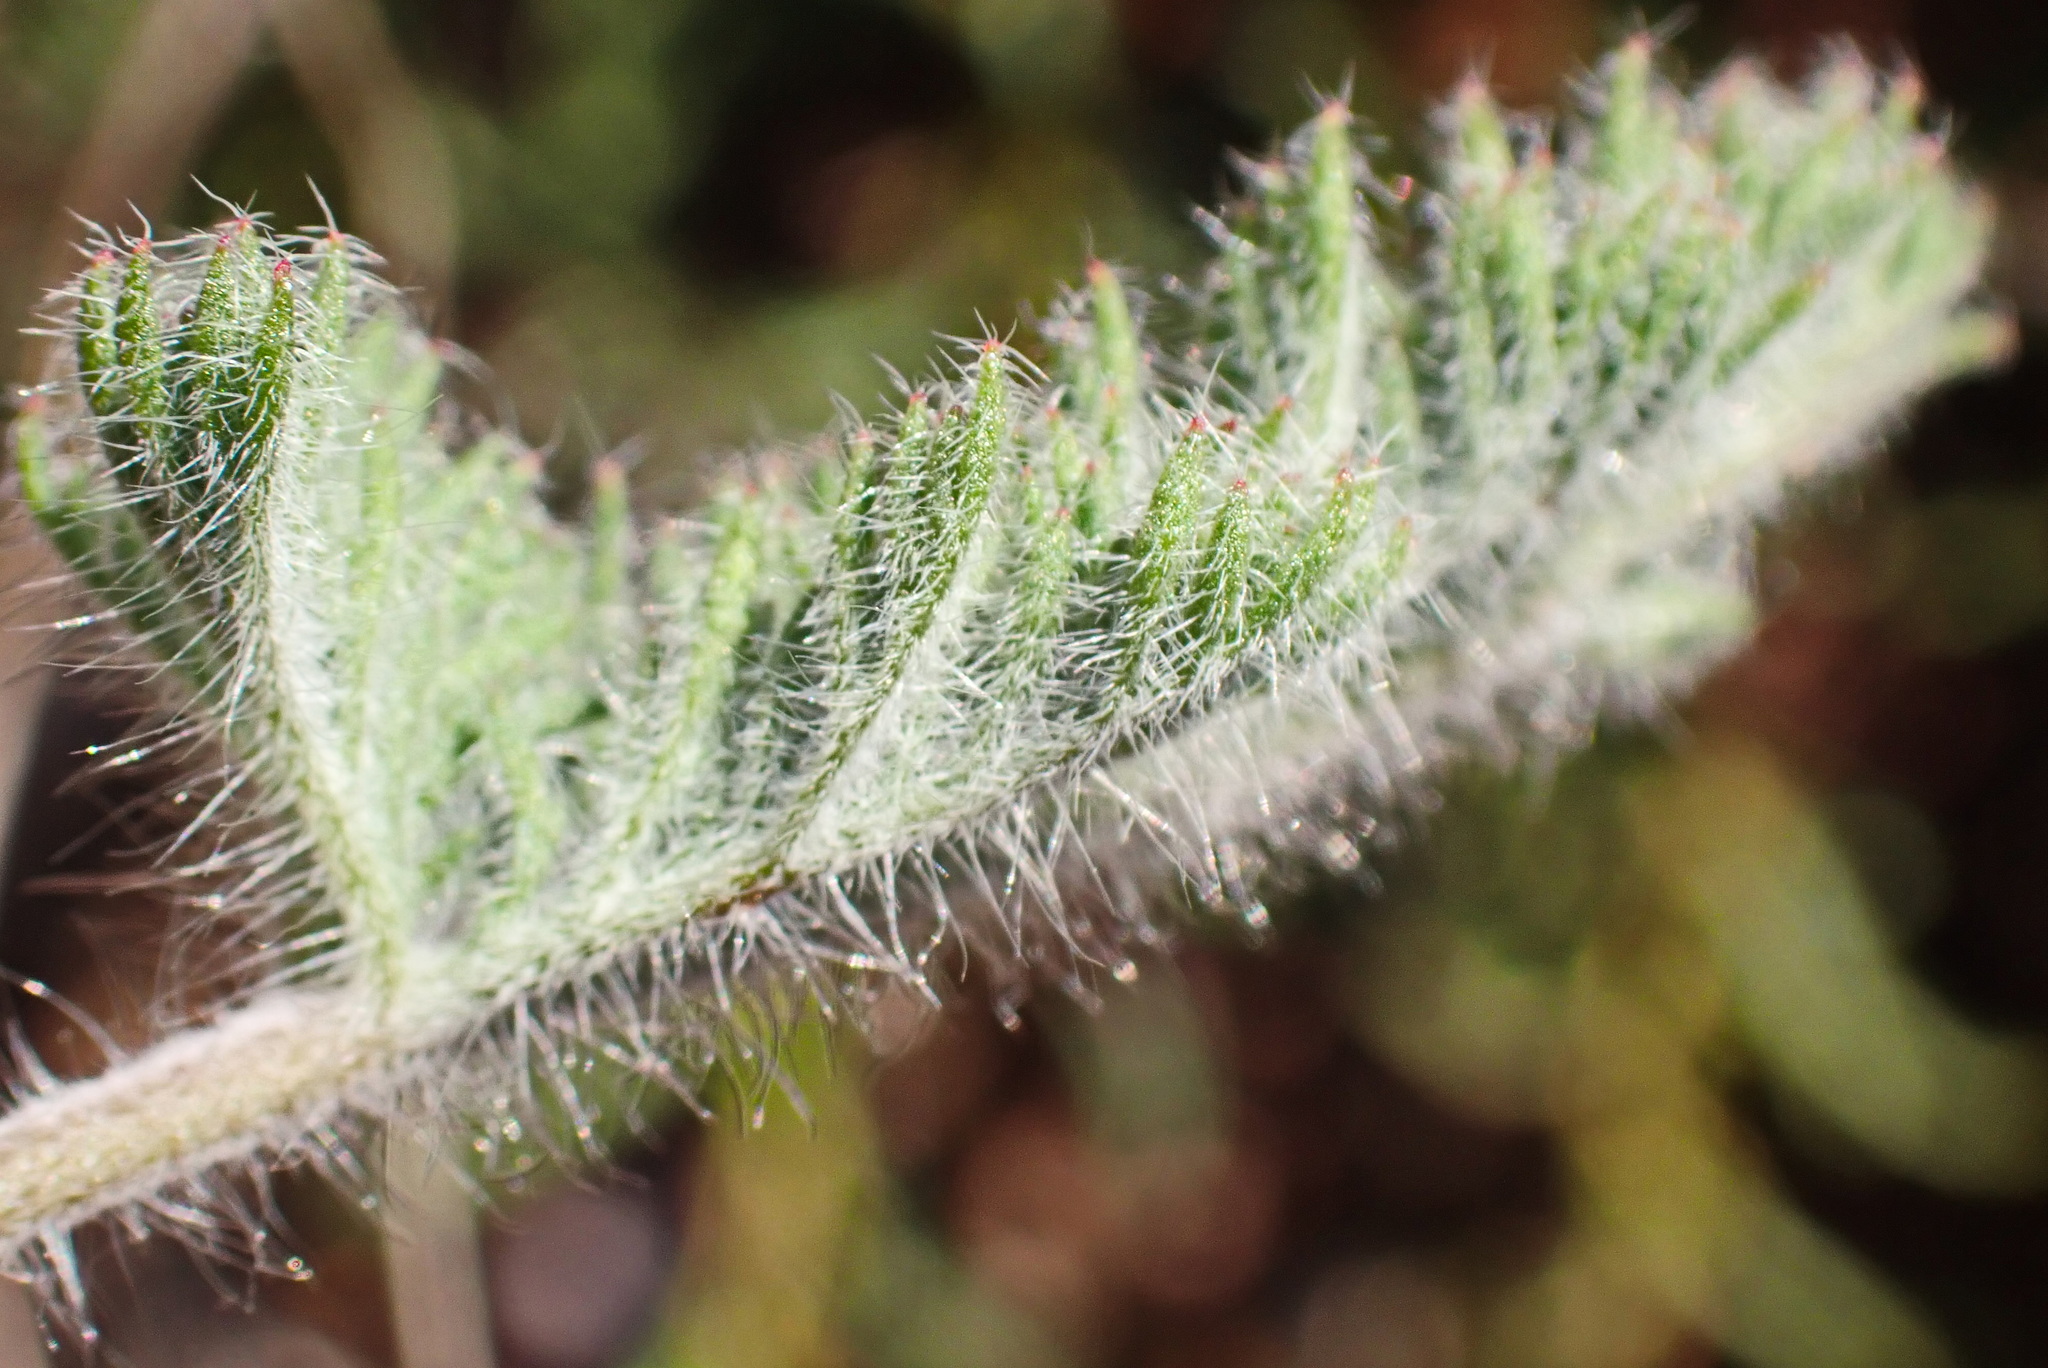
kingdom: Plantae
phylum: Tracheophyta
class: Magnoliopsida
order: Geraniales
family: Geraniaceae
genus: Pelargonium
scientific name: Pelargonium triste
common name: Night-scent pelargonium
